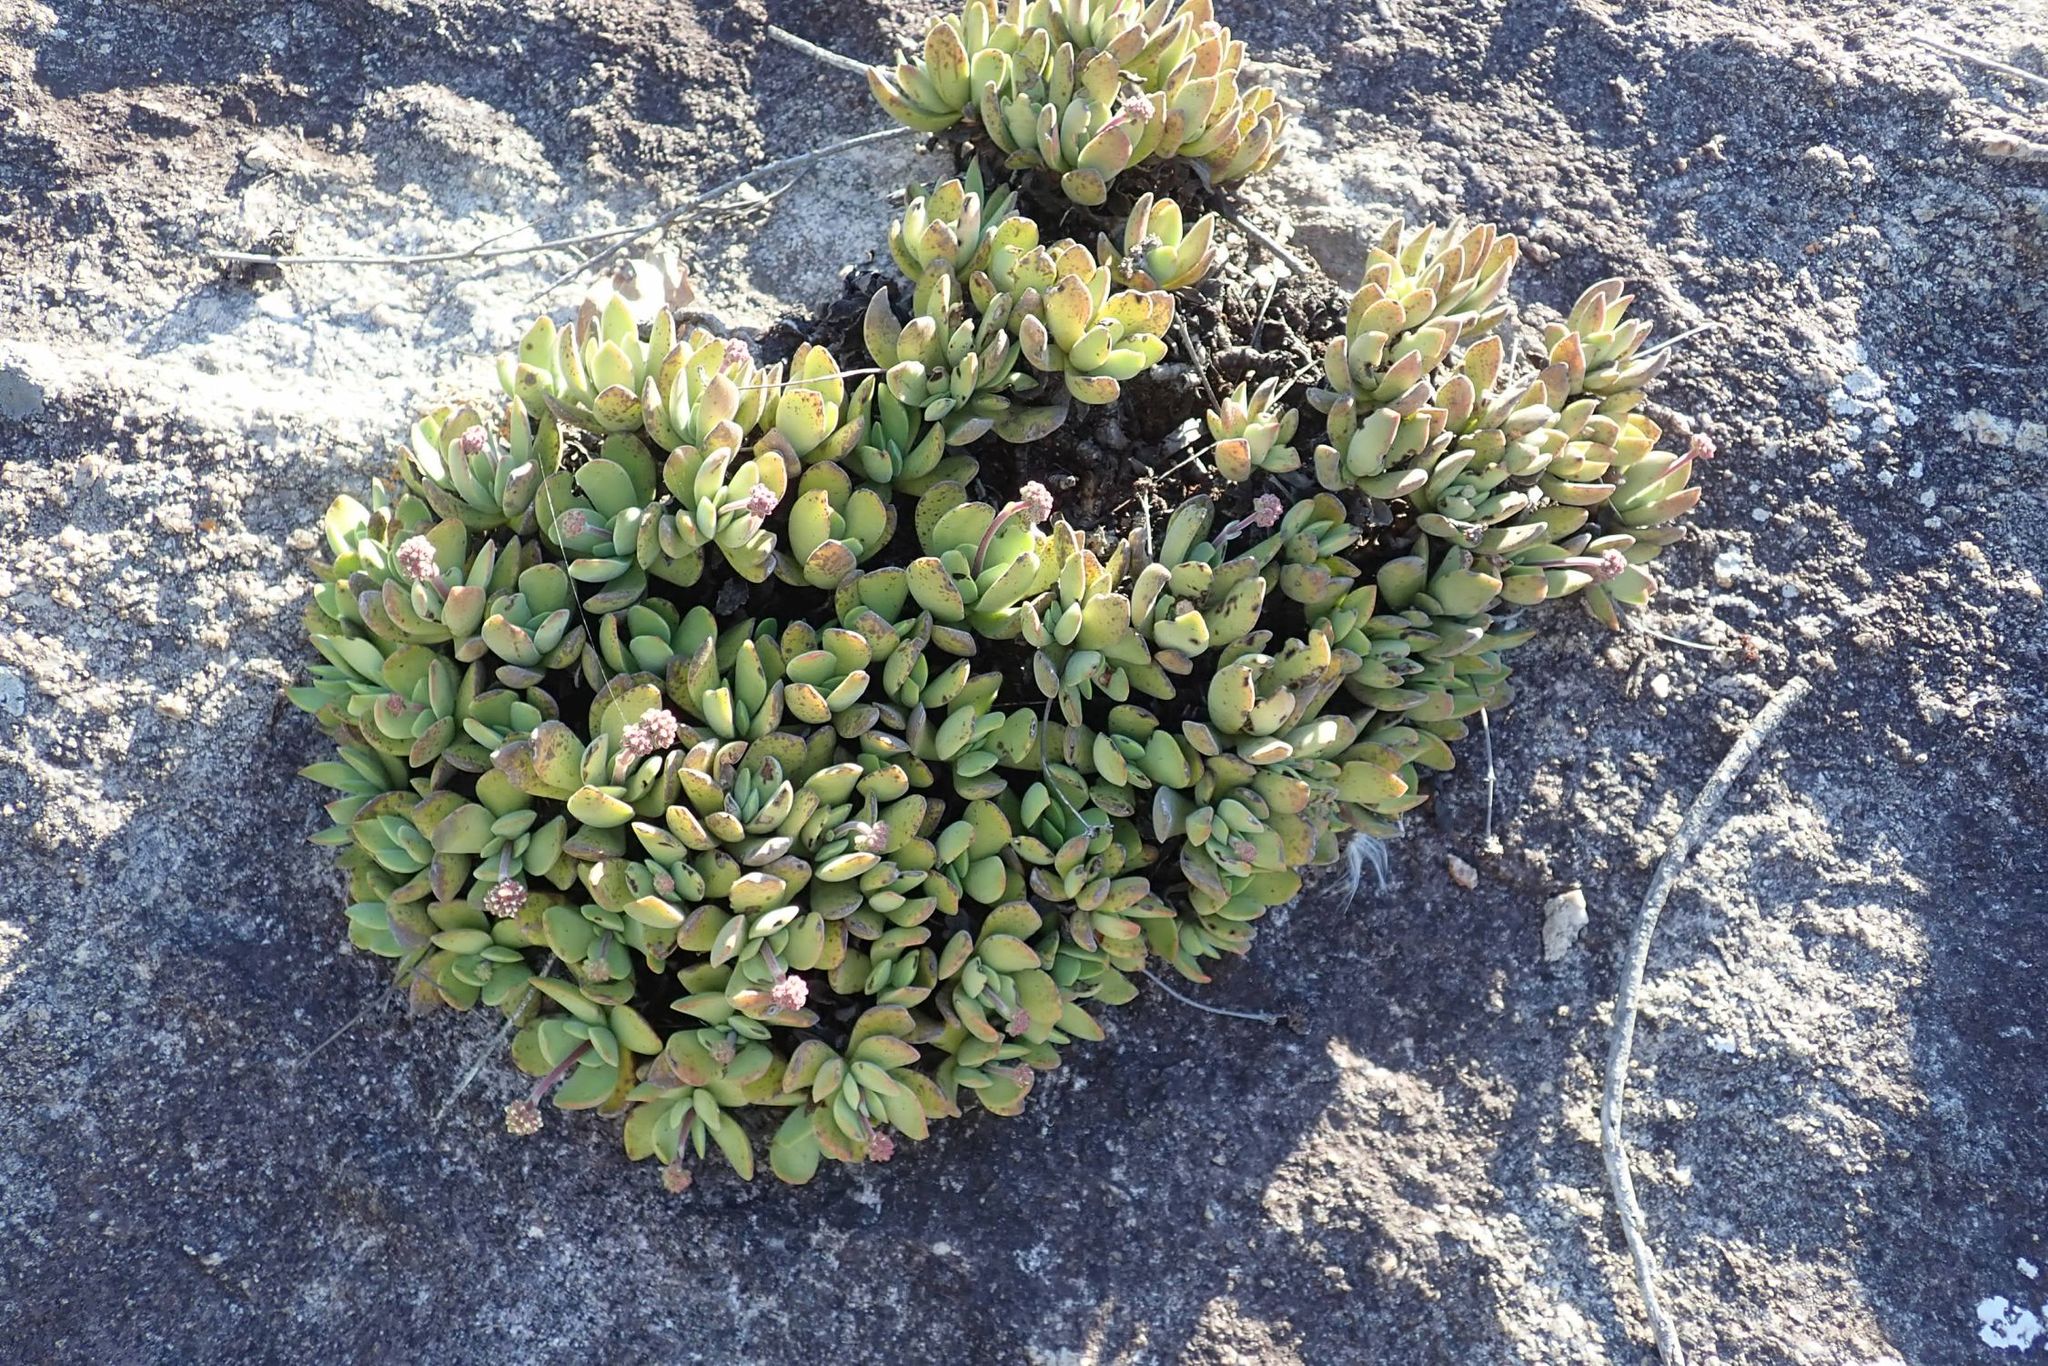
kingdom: Plantae
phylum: Tracheophyta
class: Magnoliopsida
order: Saxifragales
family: Crassulaceae
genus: Crassula
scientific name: Crassula globularioides
